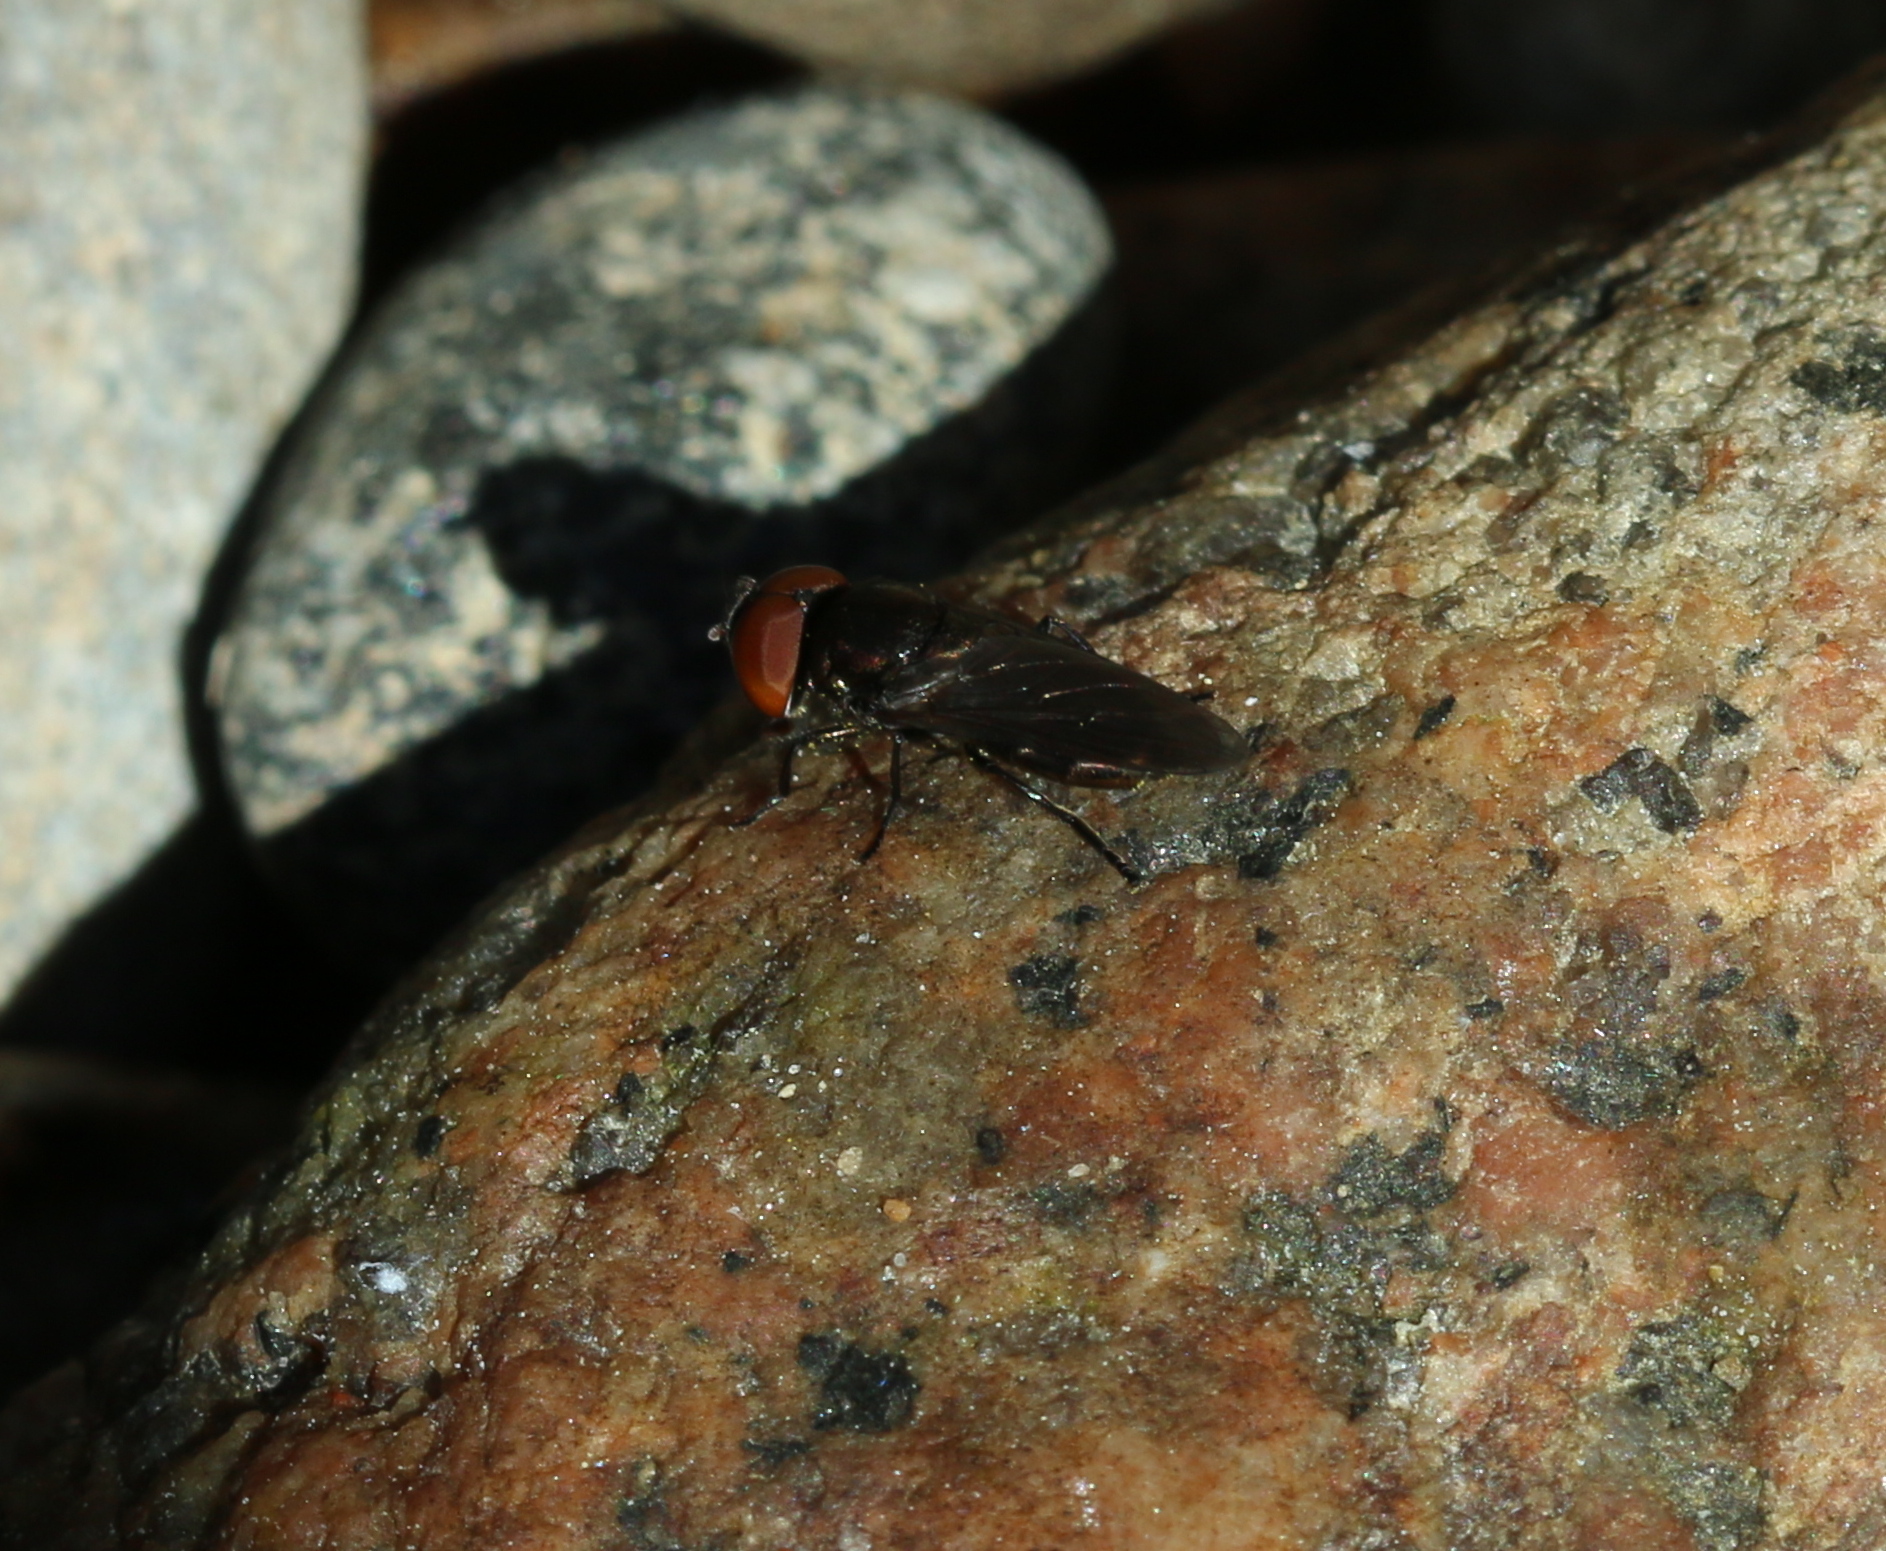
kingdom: Animalia
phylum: Arthropoda
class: Insecta
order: Diptera
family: Syrphidae
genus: Chrysogaster
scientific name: Chrysogaster solstitialis
